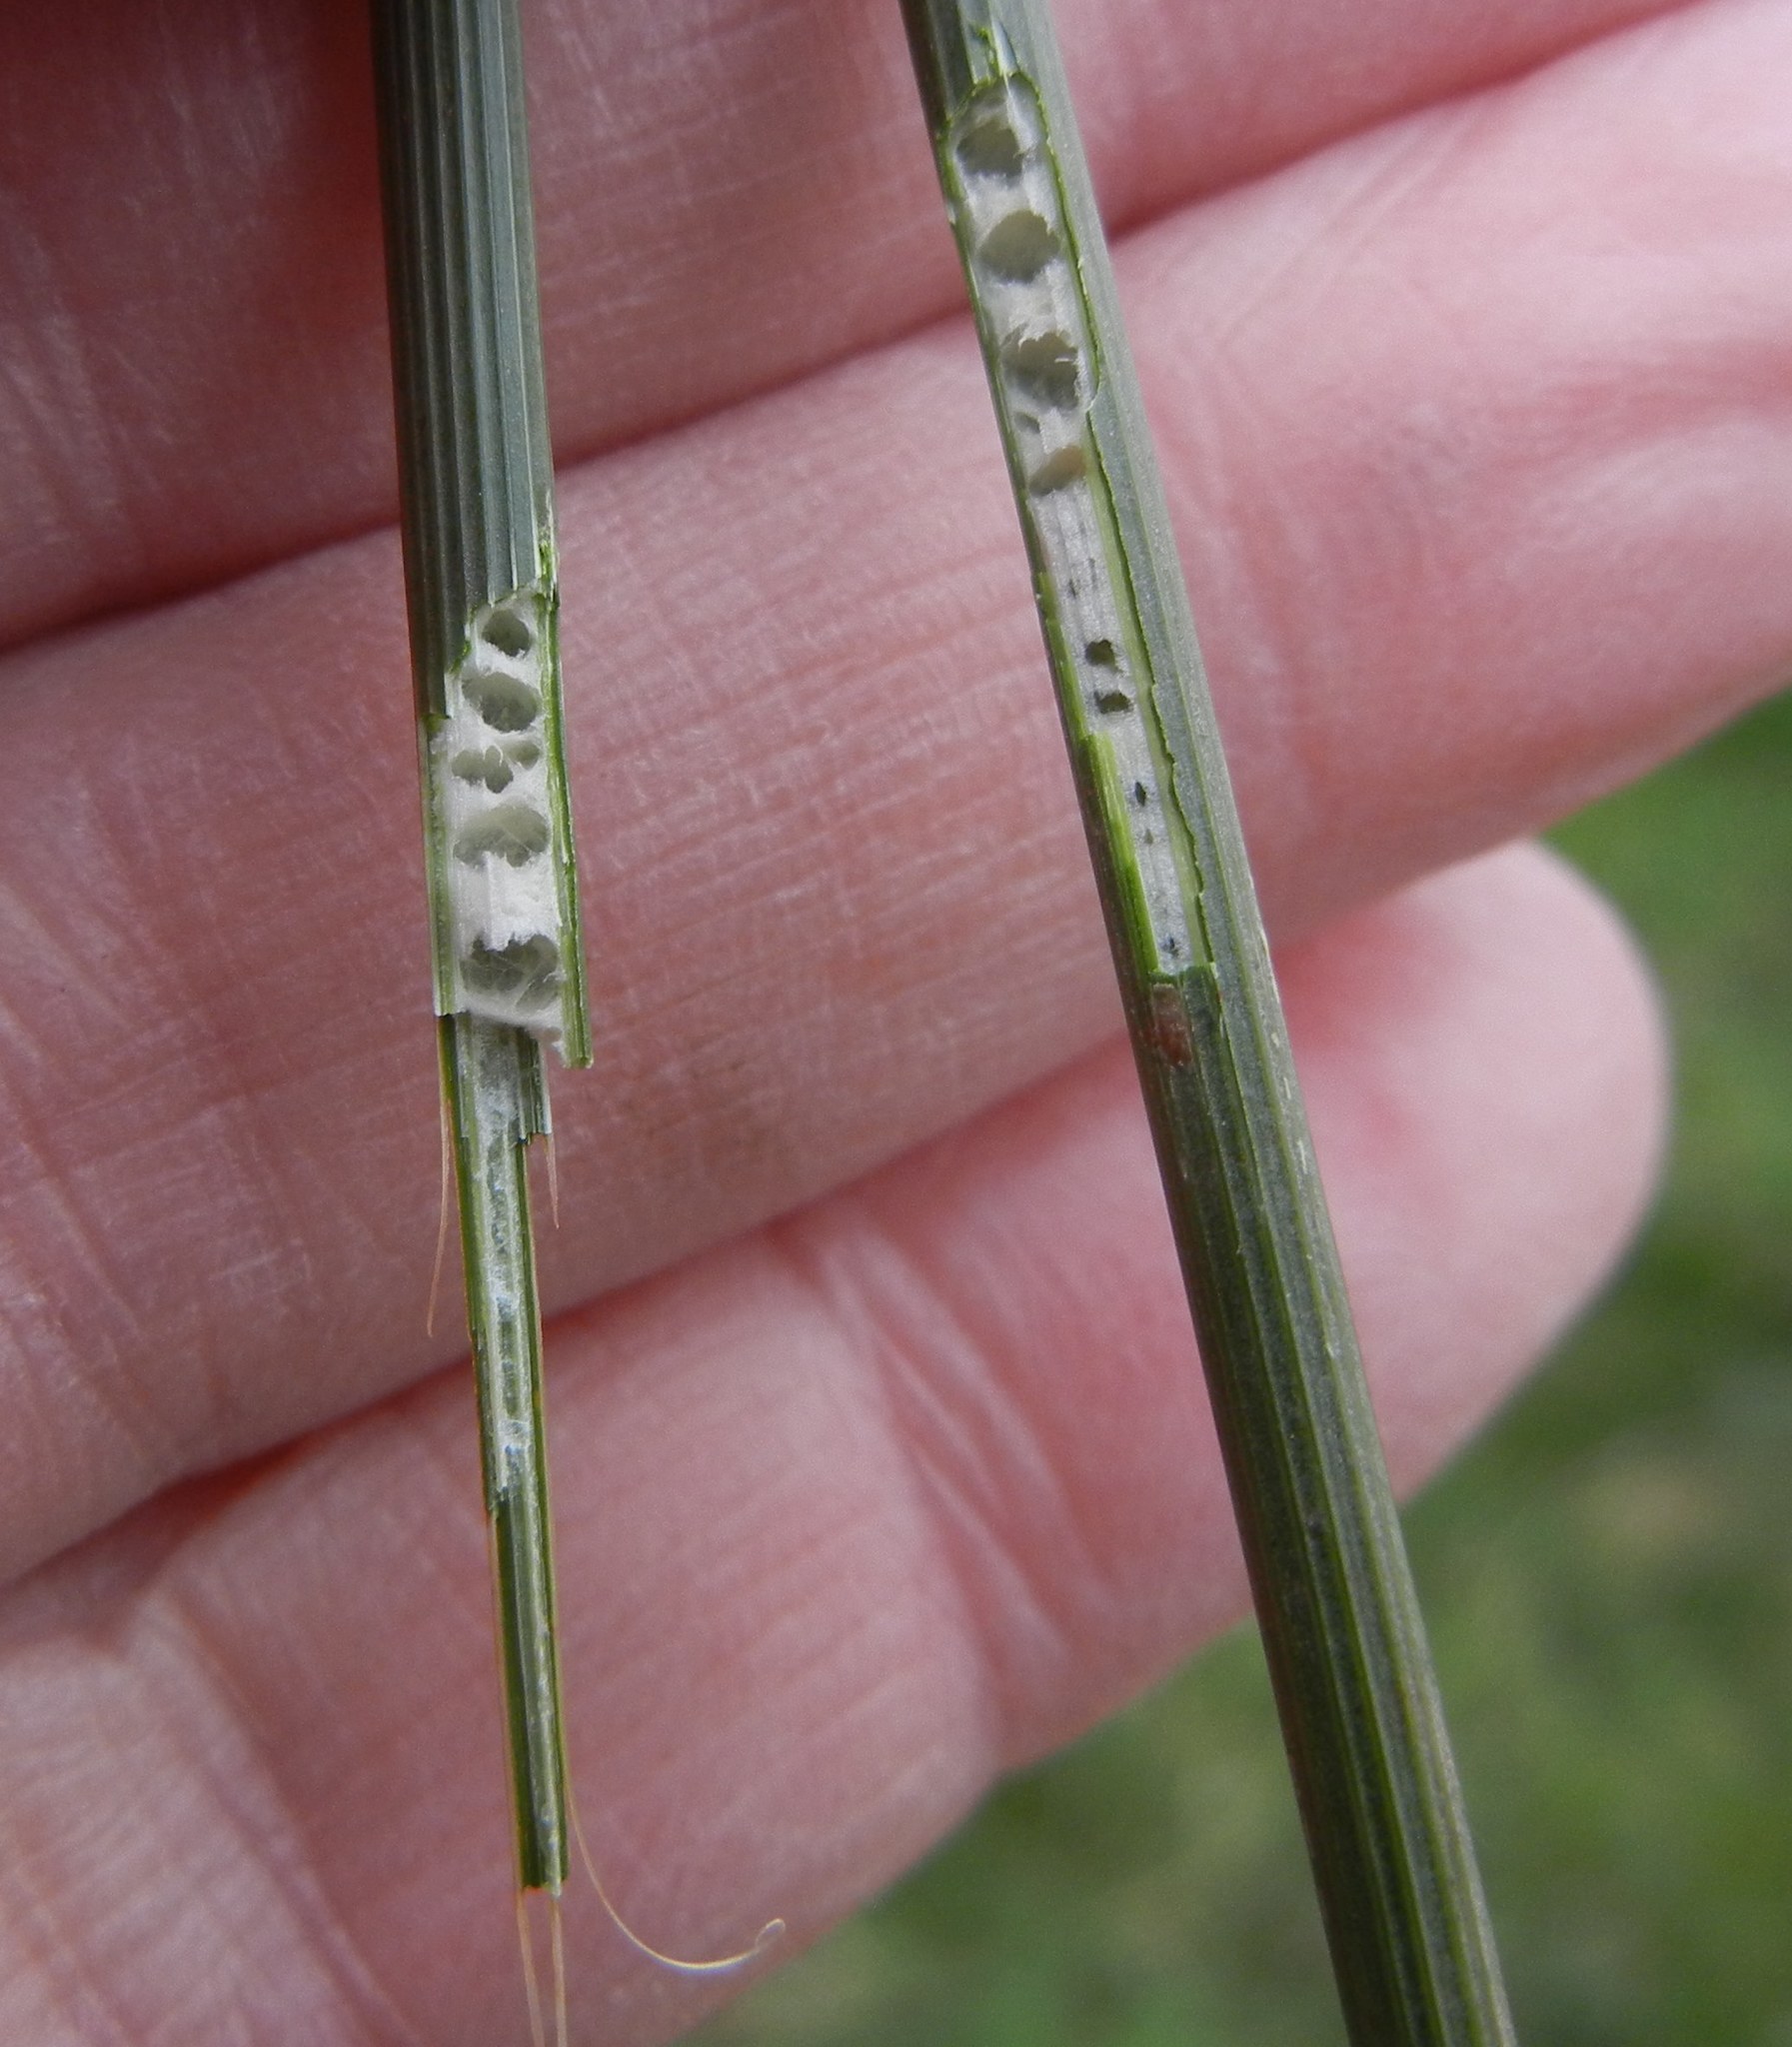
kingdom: Plantae
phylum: Tracheophyta
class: Liliopsida
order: Poales
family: Juncaceae
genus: Juncus
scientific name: Juncus inflexus
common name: Hard rush
